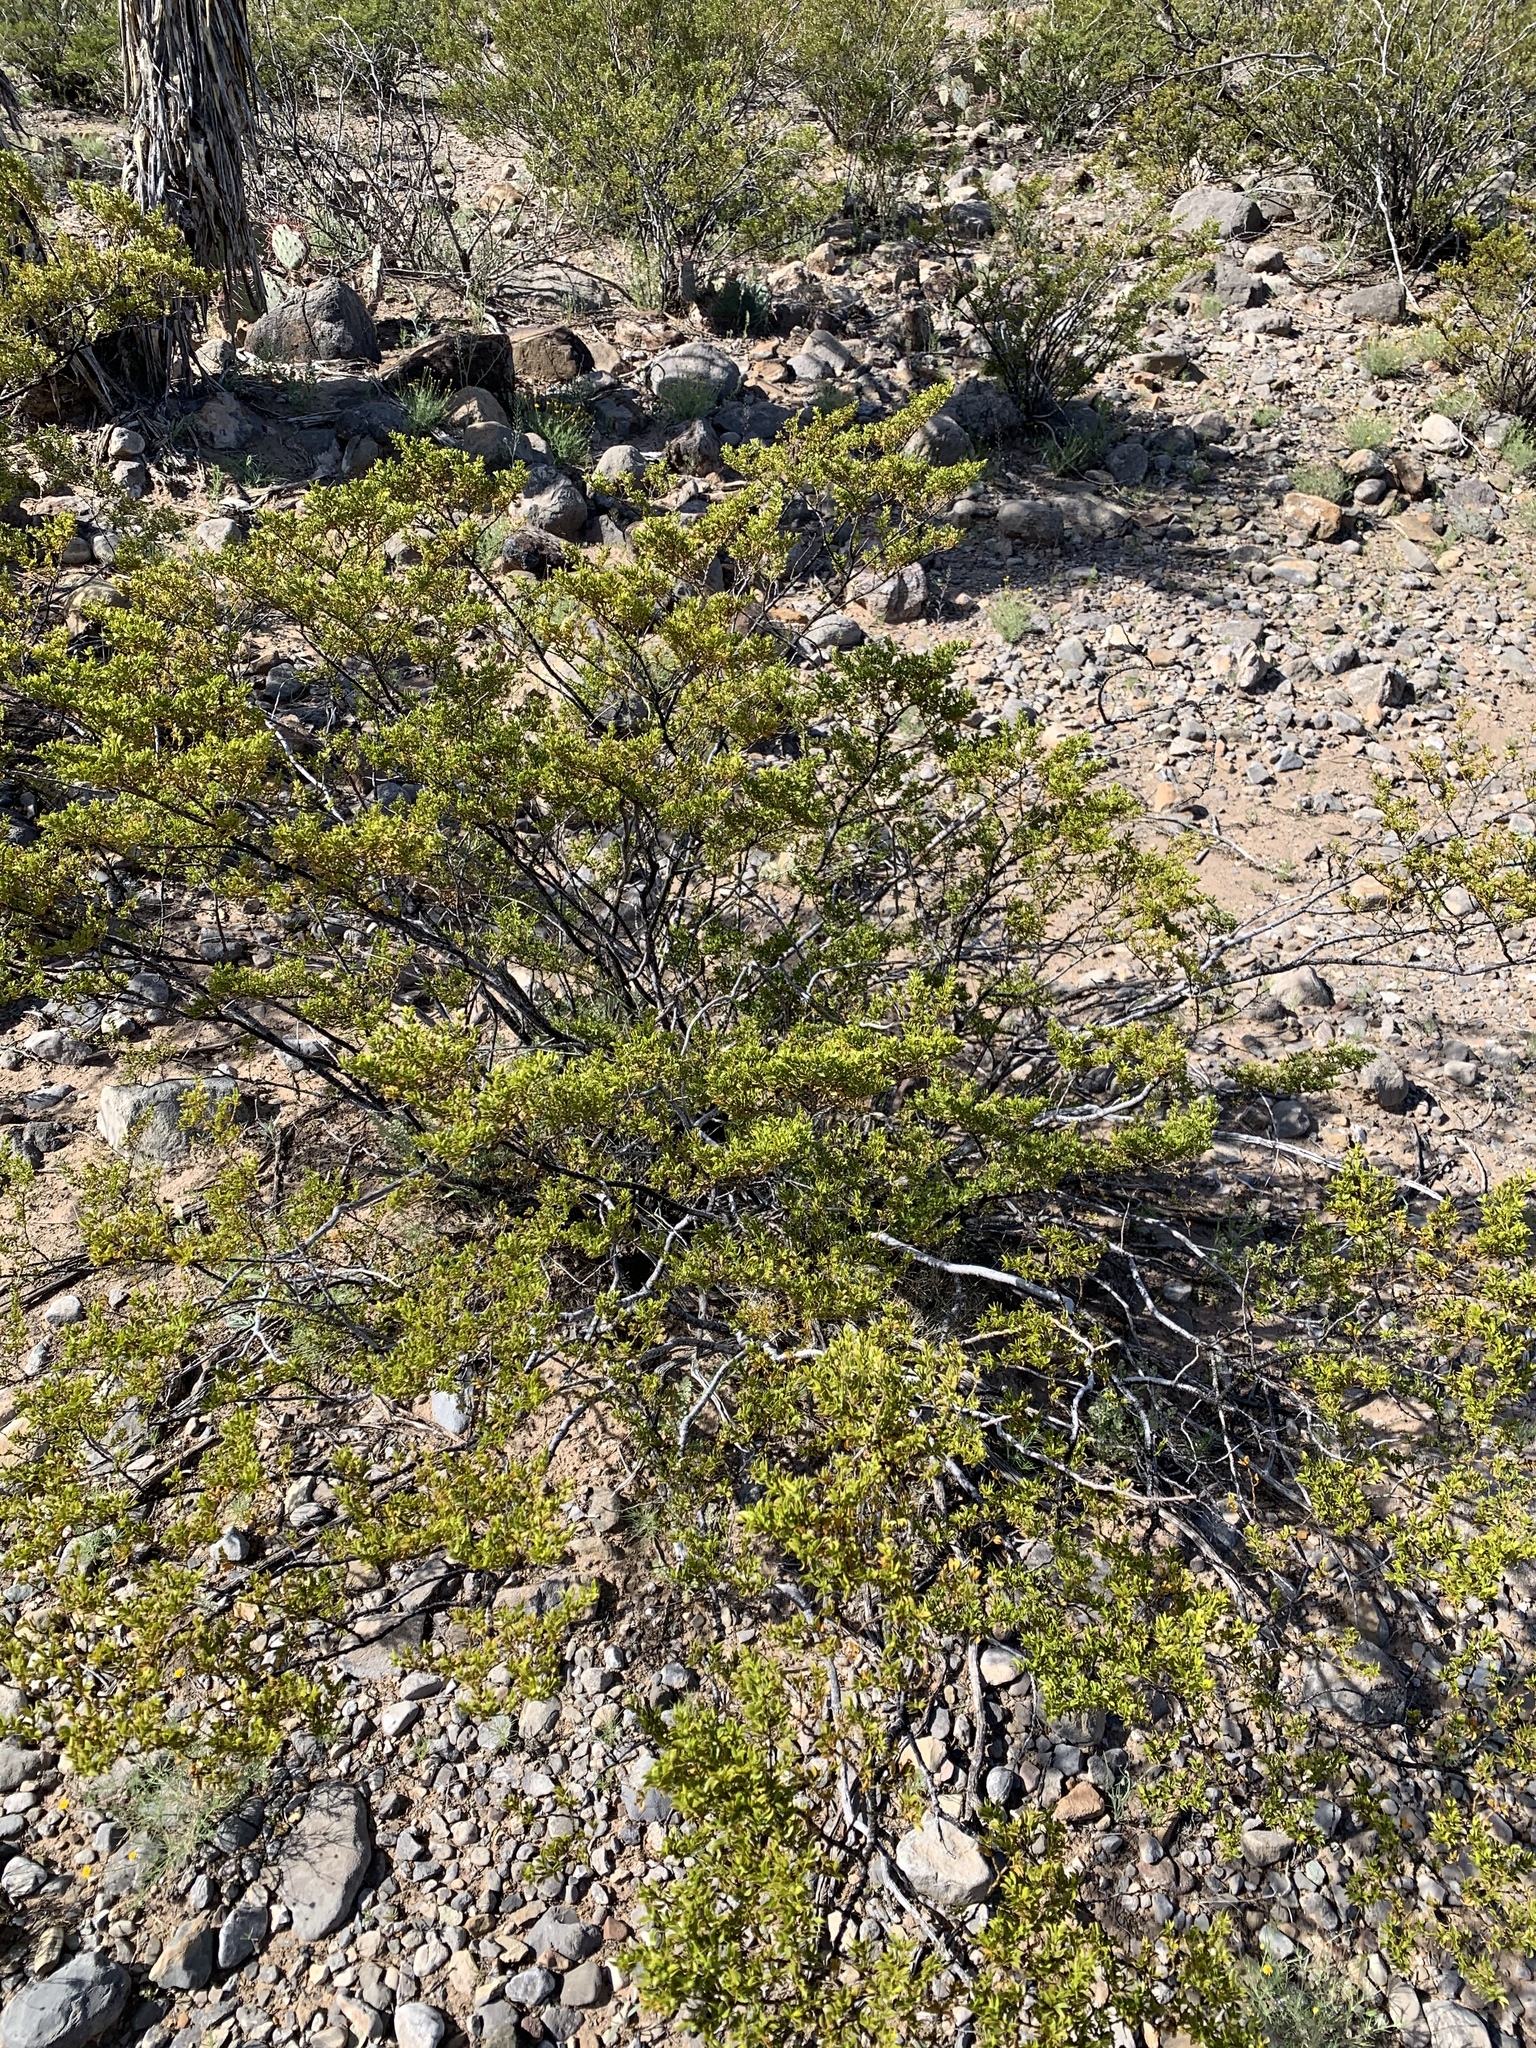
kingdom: Plantae
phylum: Tracheophyta
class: Magnoliopsida
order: Zygophyllales
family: Zygophyllaceae
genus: Larrea
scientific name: Larrea tridentata
